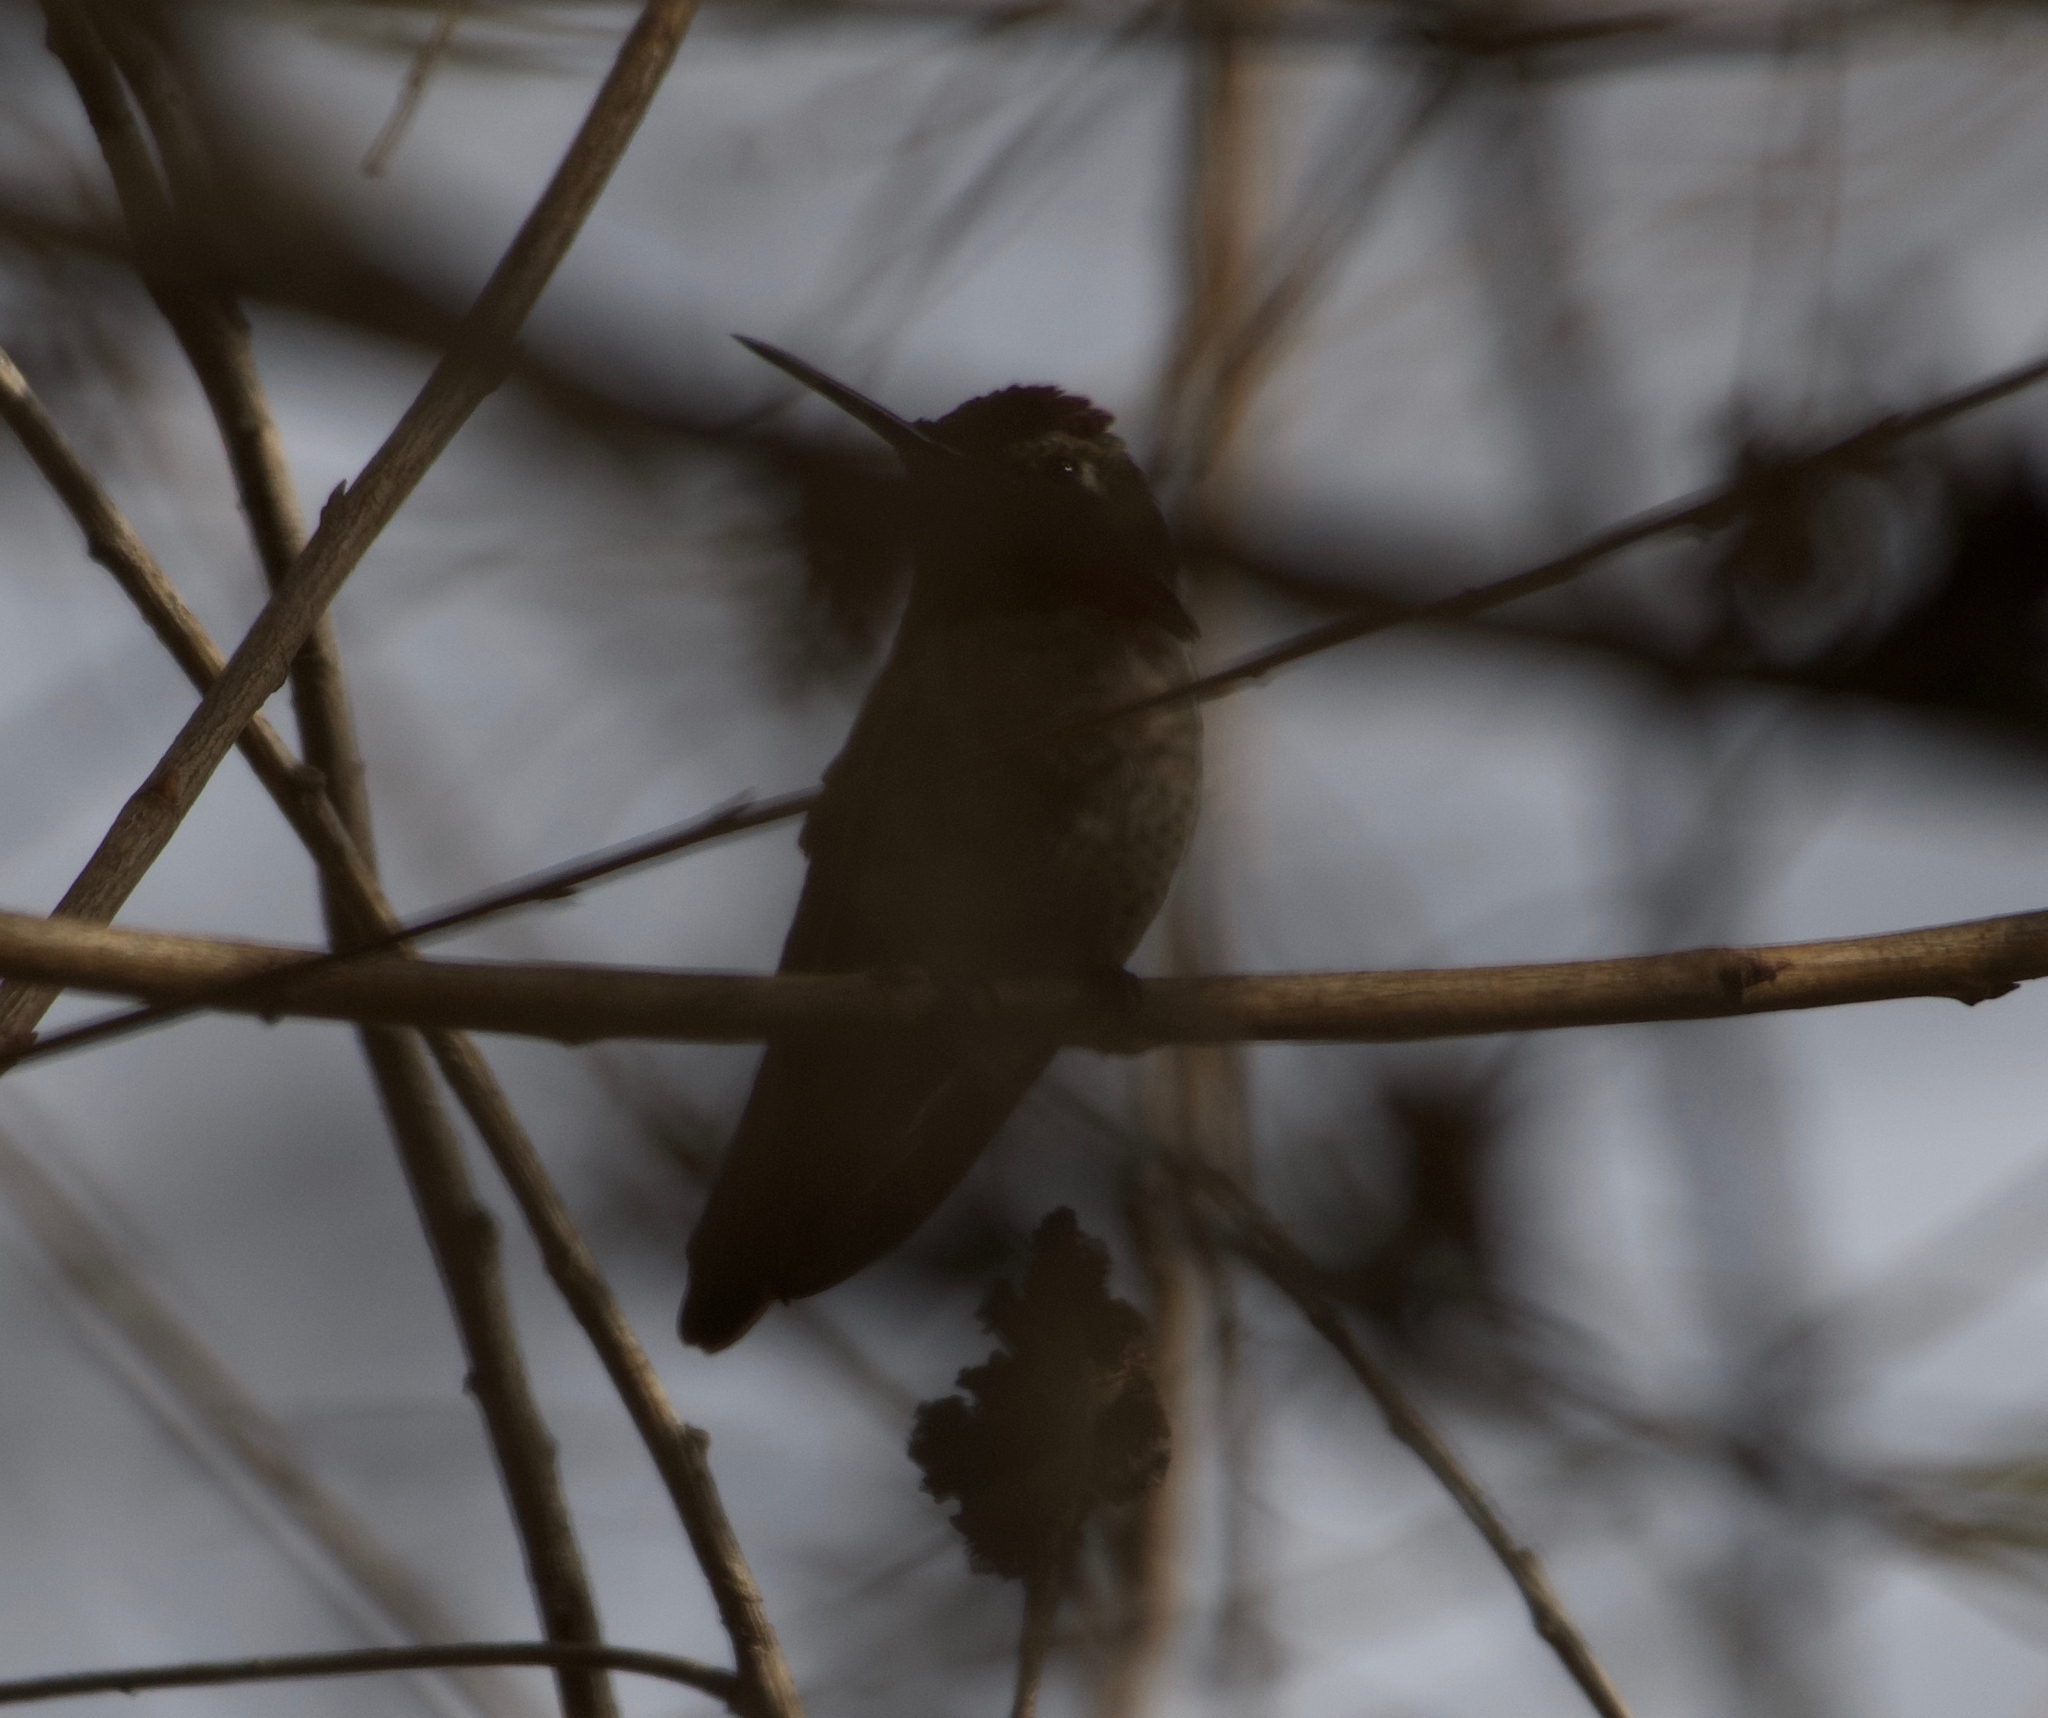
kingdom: Animalia
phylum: Chordata
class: Aves
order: Apodiformes
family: Trochilidae
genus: Calypte
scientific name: Calypte anna
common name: Anna's hummingbird
